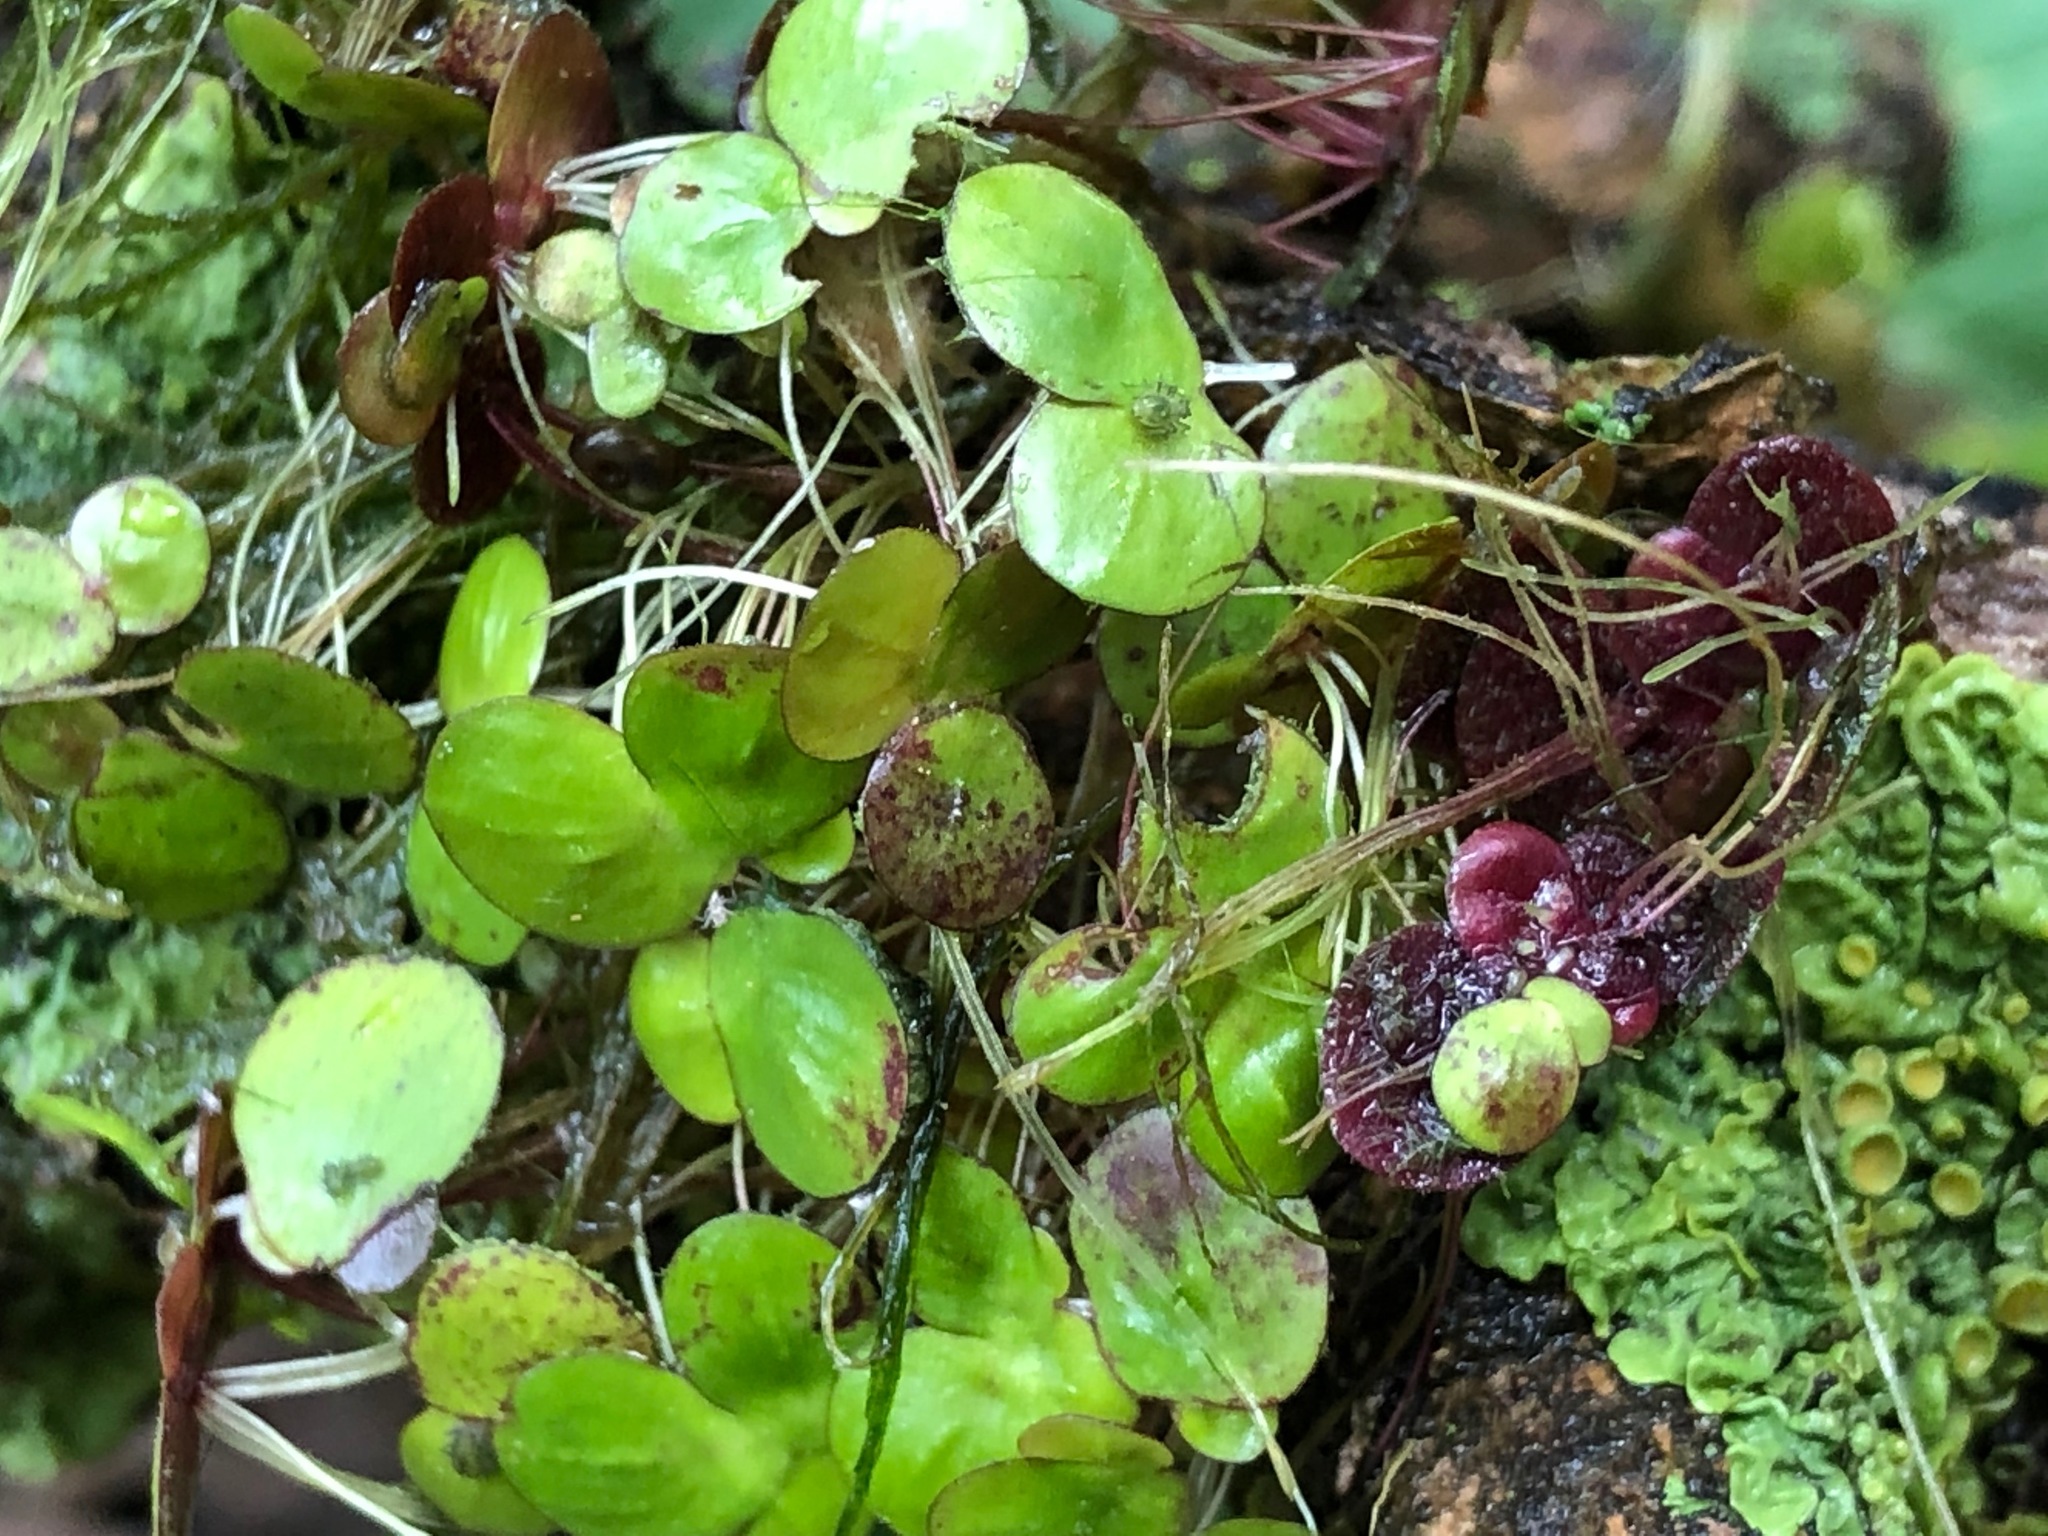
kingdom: Plantae
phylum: Tracheophyta
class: Liliopsida
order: Alismatales
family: Araceae
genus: Spirodela
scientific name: Spirodela polyrhiza
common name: Great duckweed
